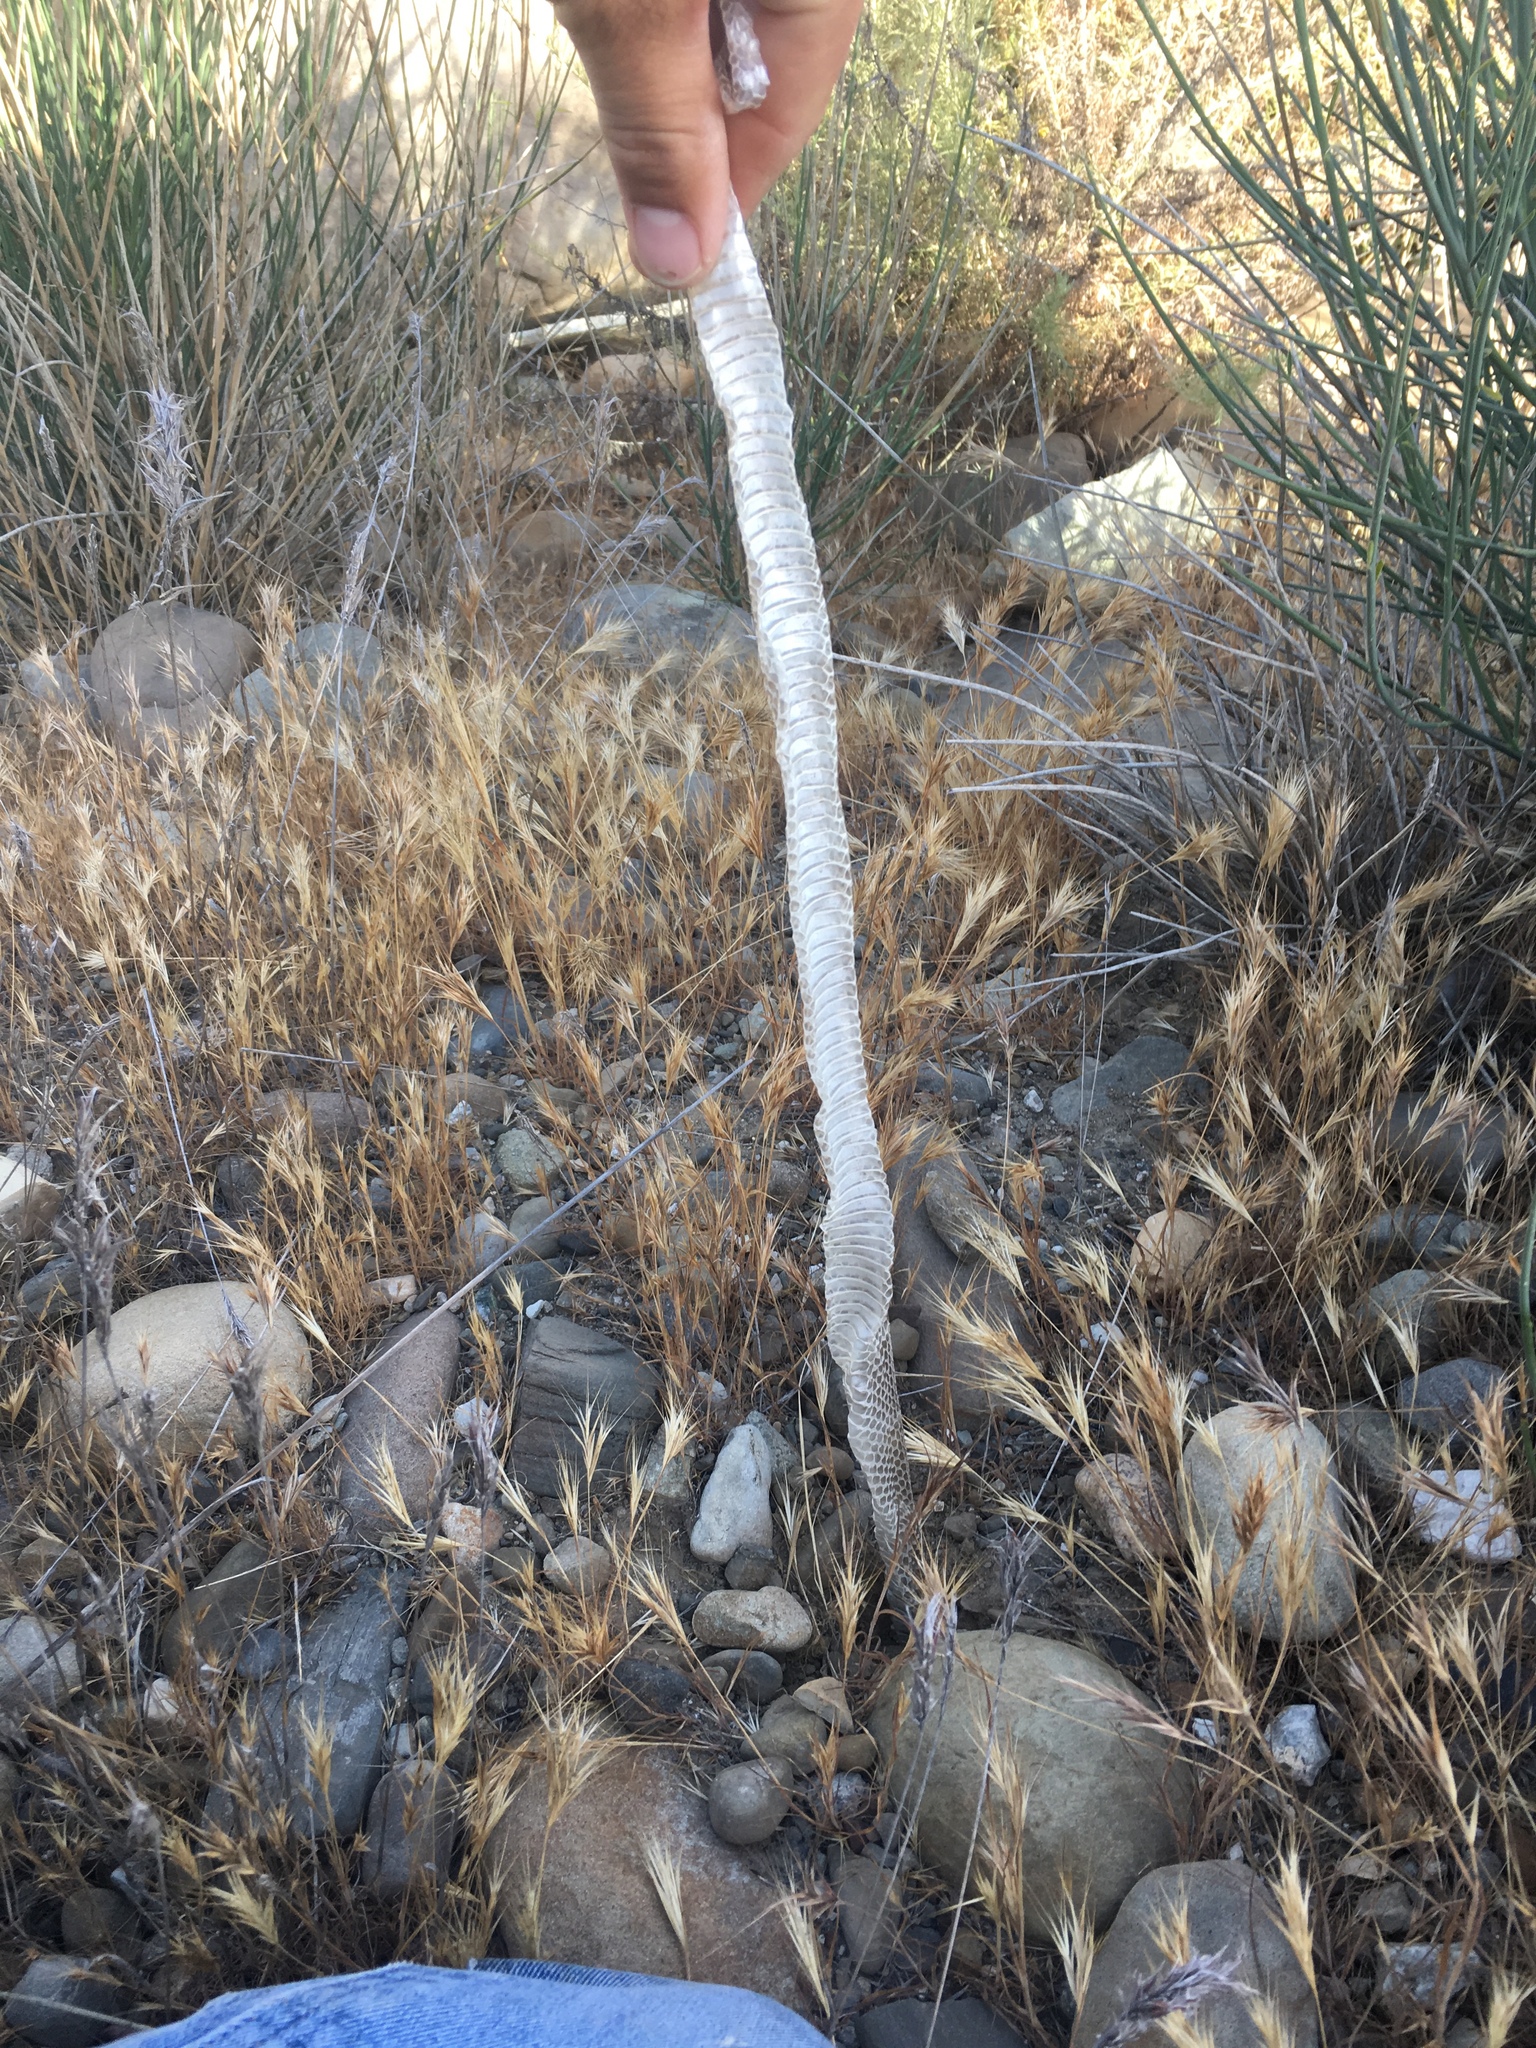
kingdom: Animalia
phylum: Chordata
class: Squamata
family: Colubridae
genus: Lampropeltis
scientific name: Lampropeltis californiae
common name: California kingsnake
